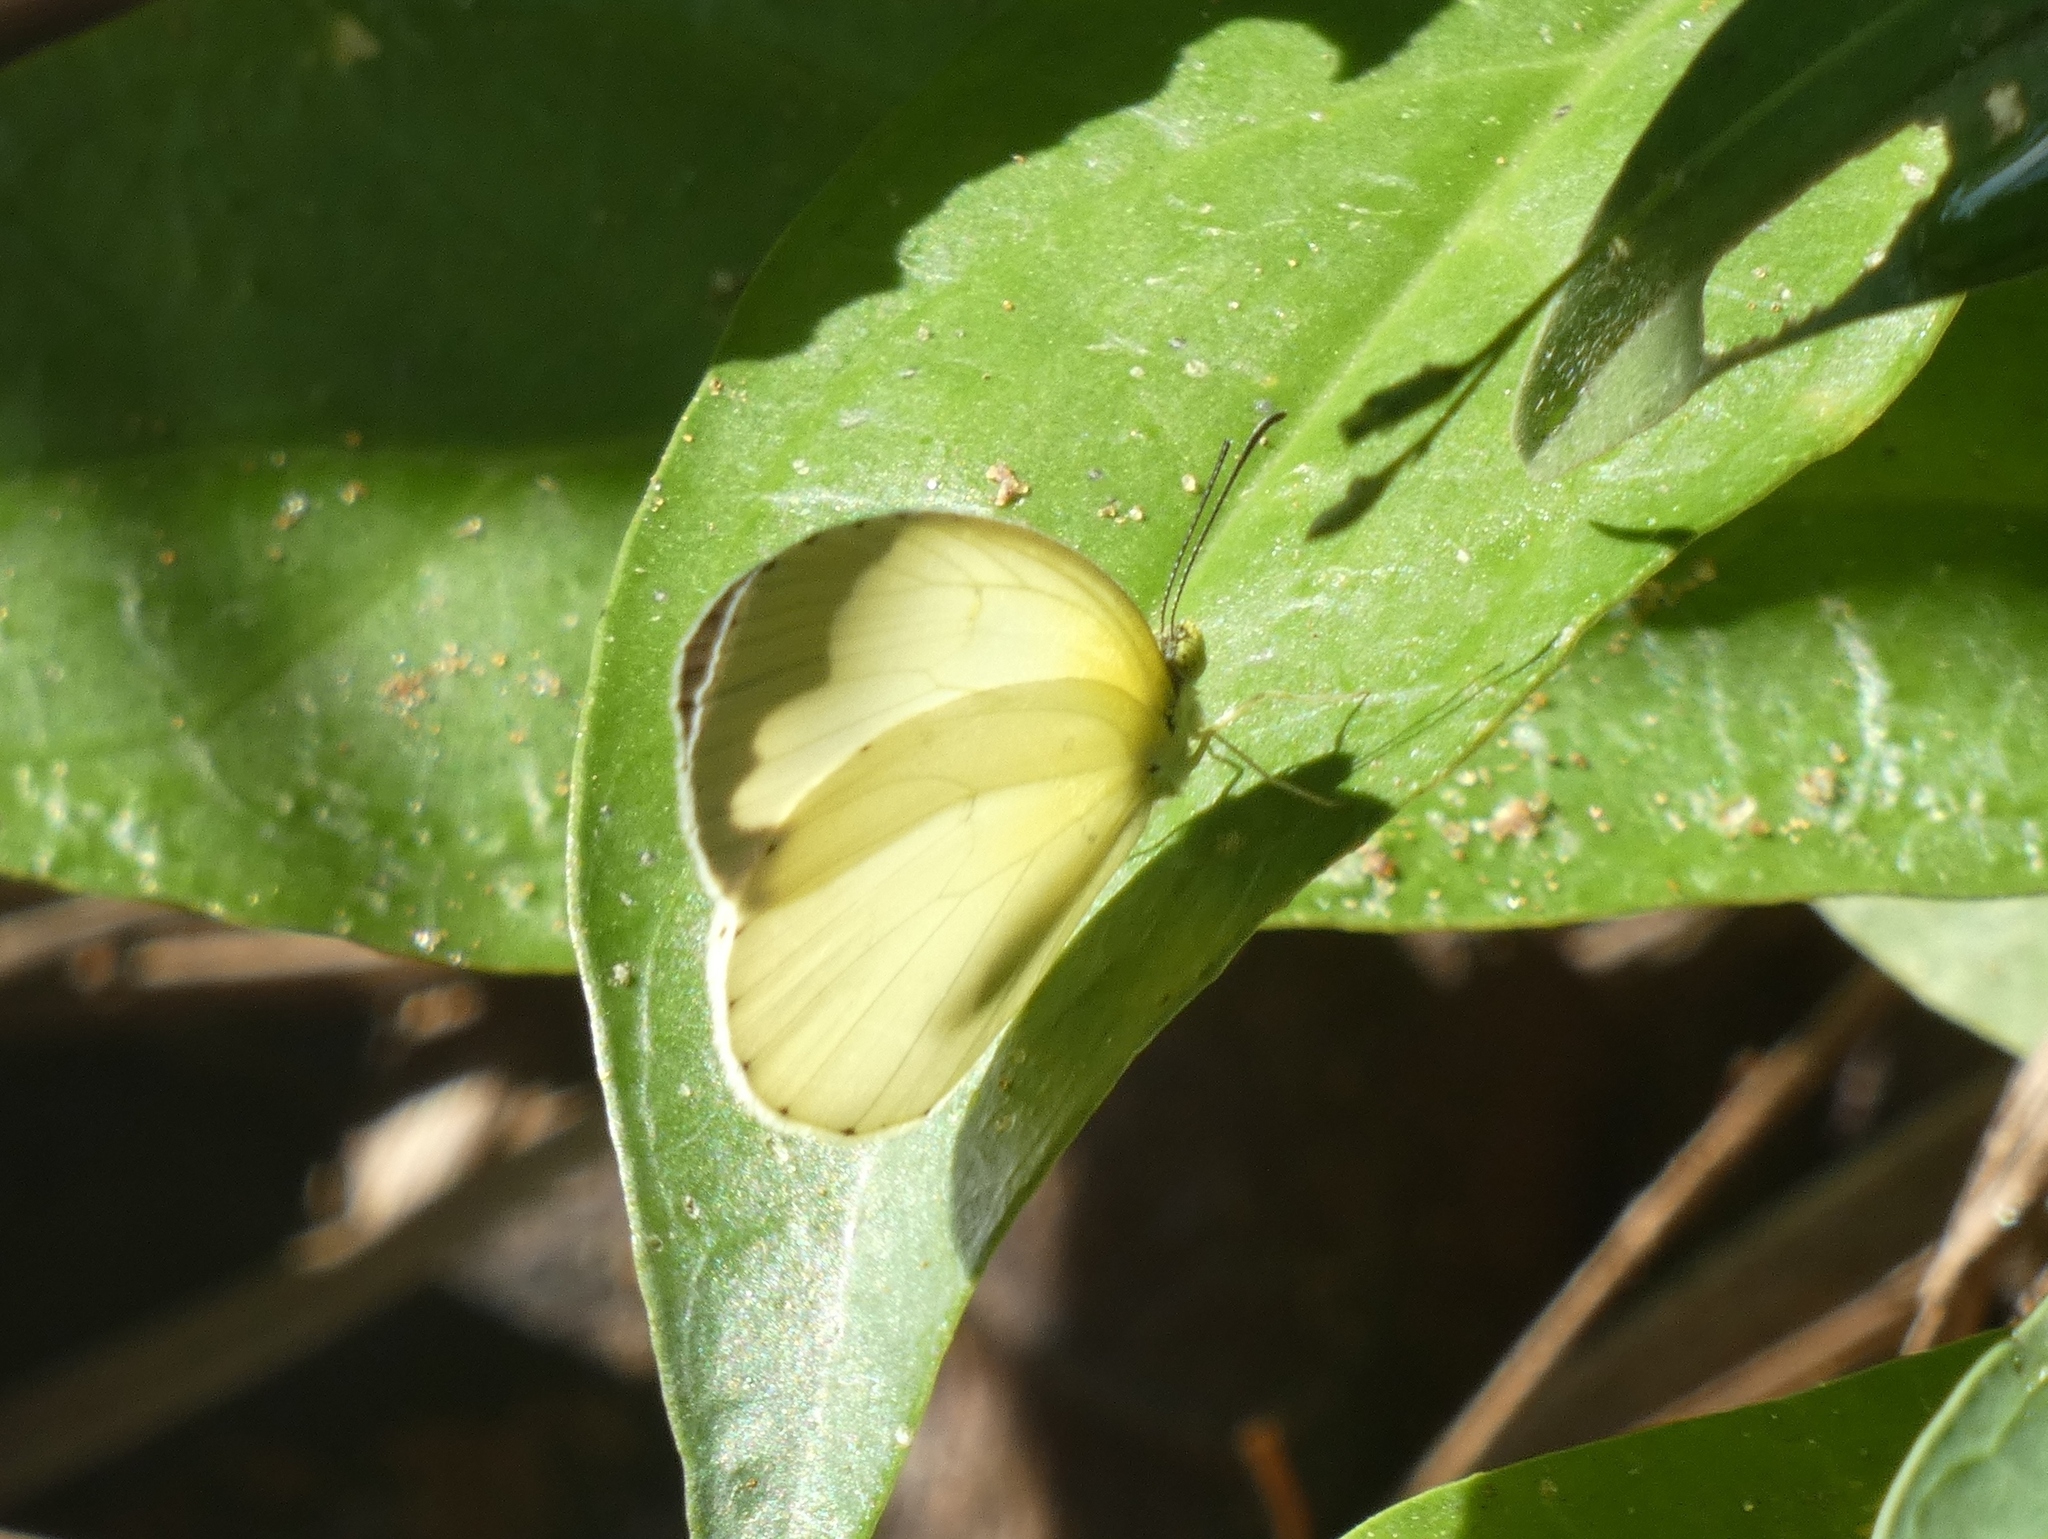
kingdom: Animalia
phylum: Arthropoda
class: Insecta
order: Lepidoptera
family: Pieridae
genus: Eurema
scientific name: Eurema senegalensis
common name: Forest grass yellow
